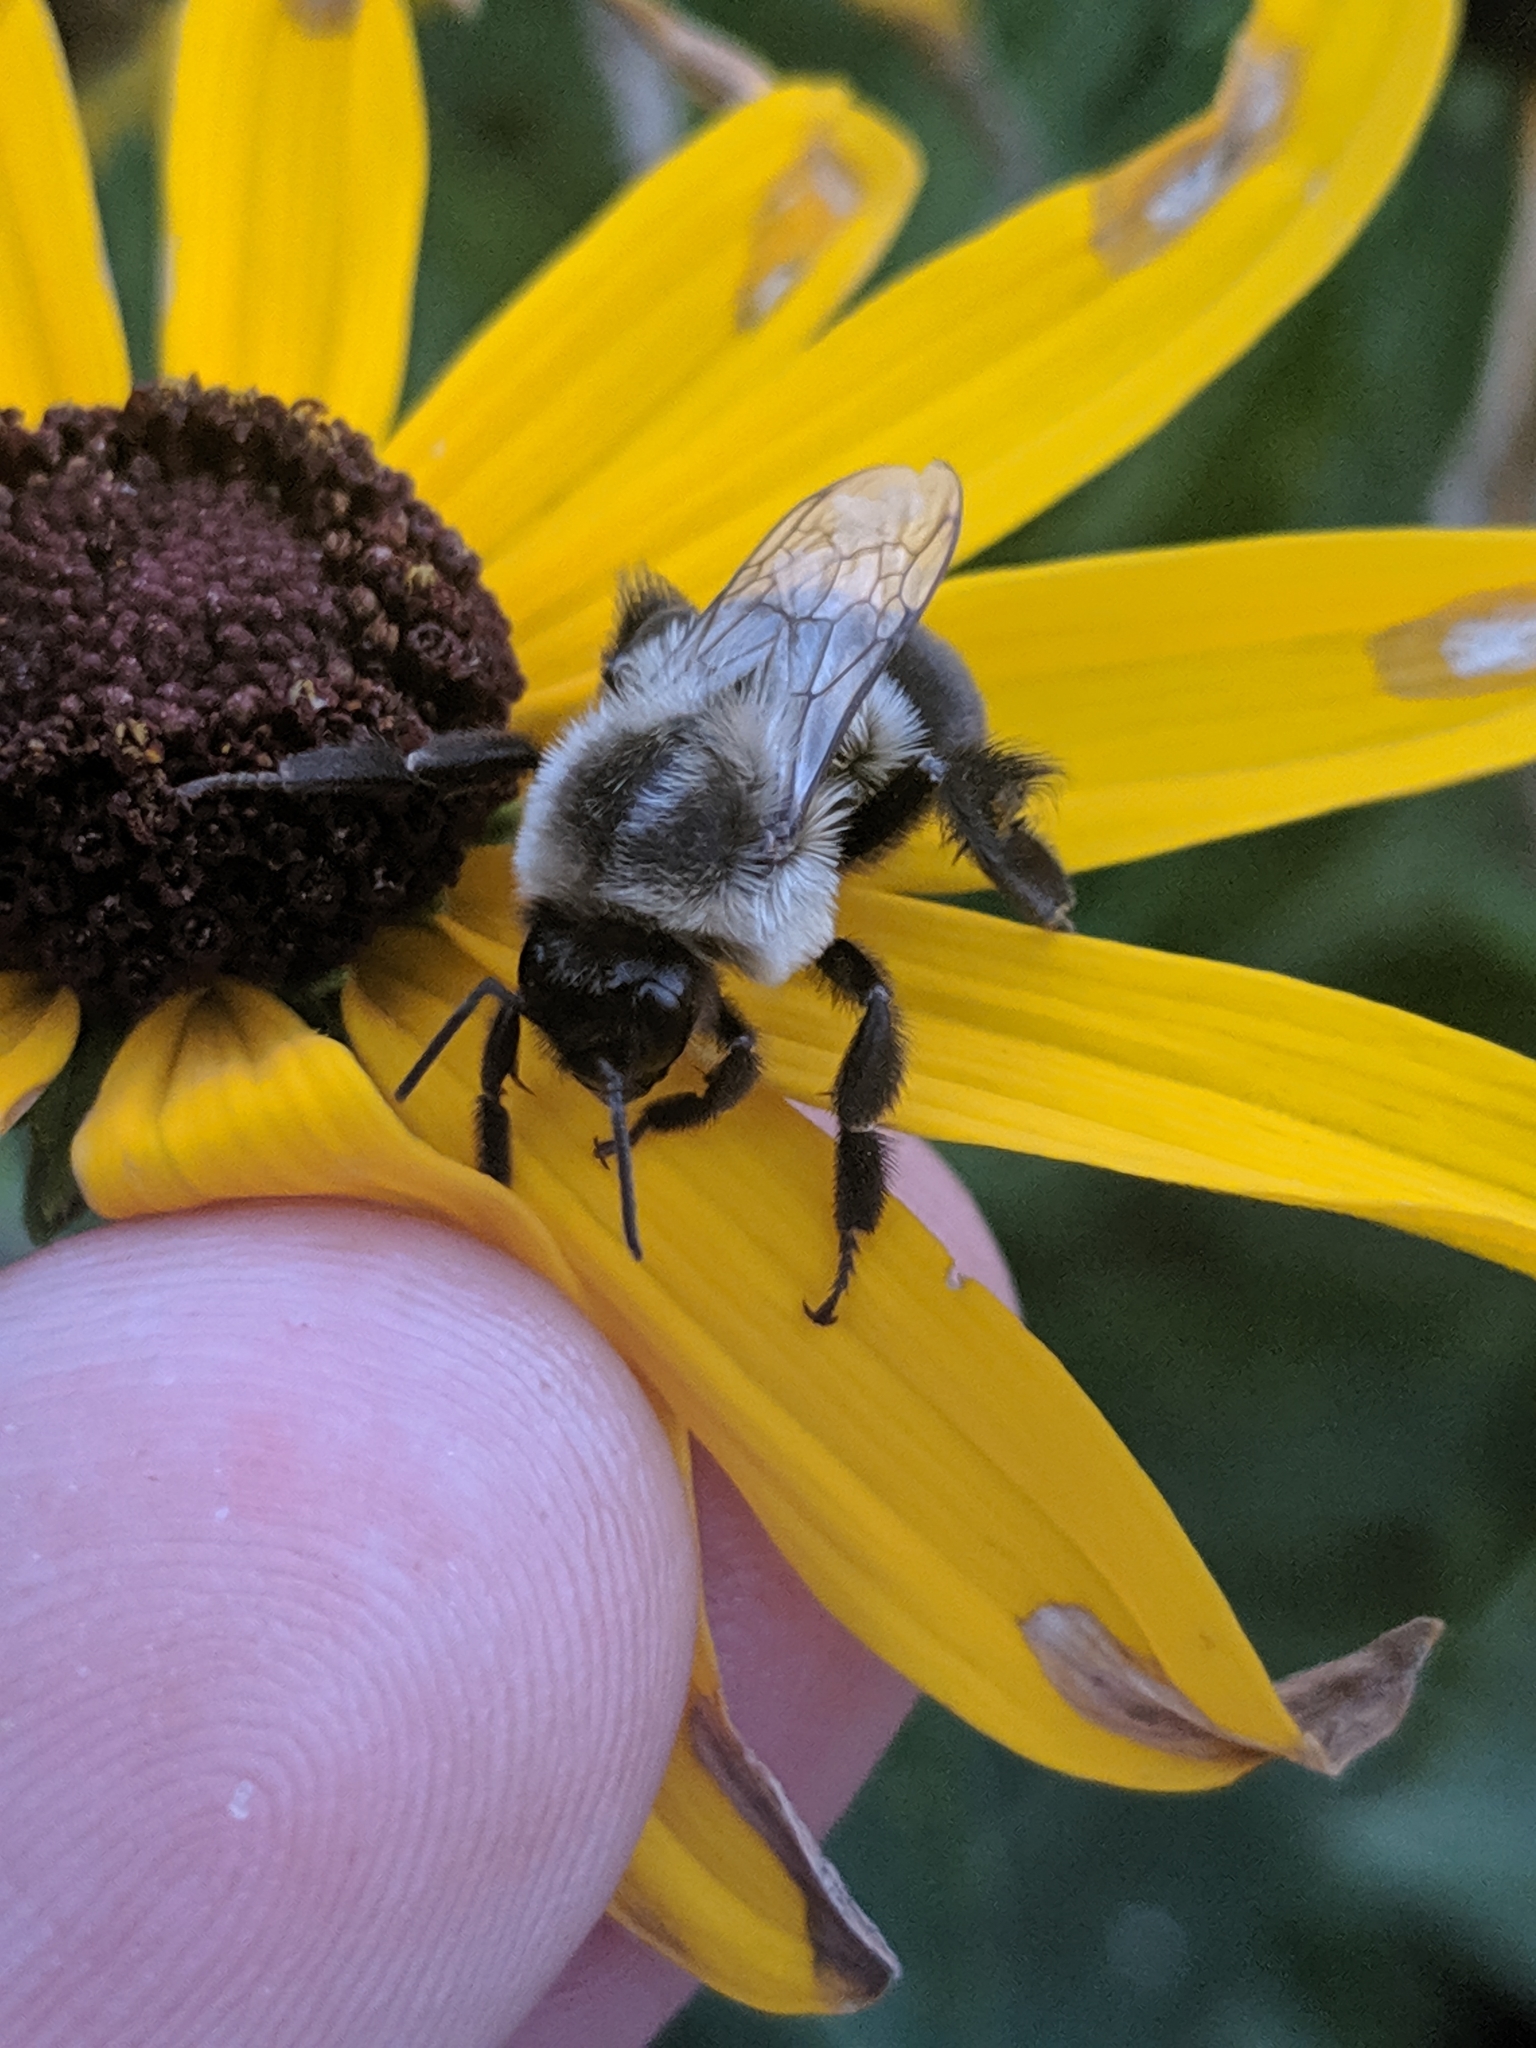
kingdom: Animalia
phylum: Arthropoda
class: Insecta
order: Hymenoptera
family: Apidae
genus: Bombus
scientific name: Bombus impatiens
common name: Common eastern bumble bee
